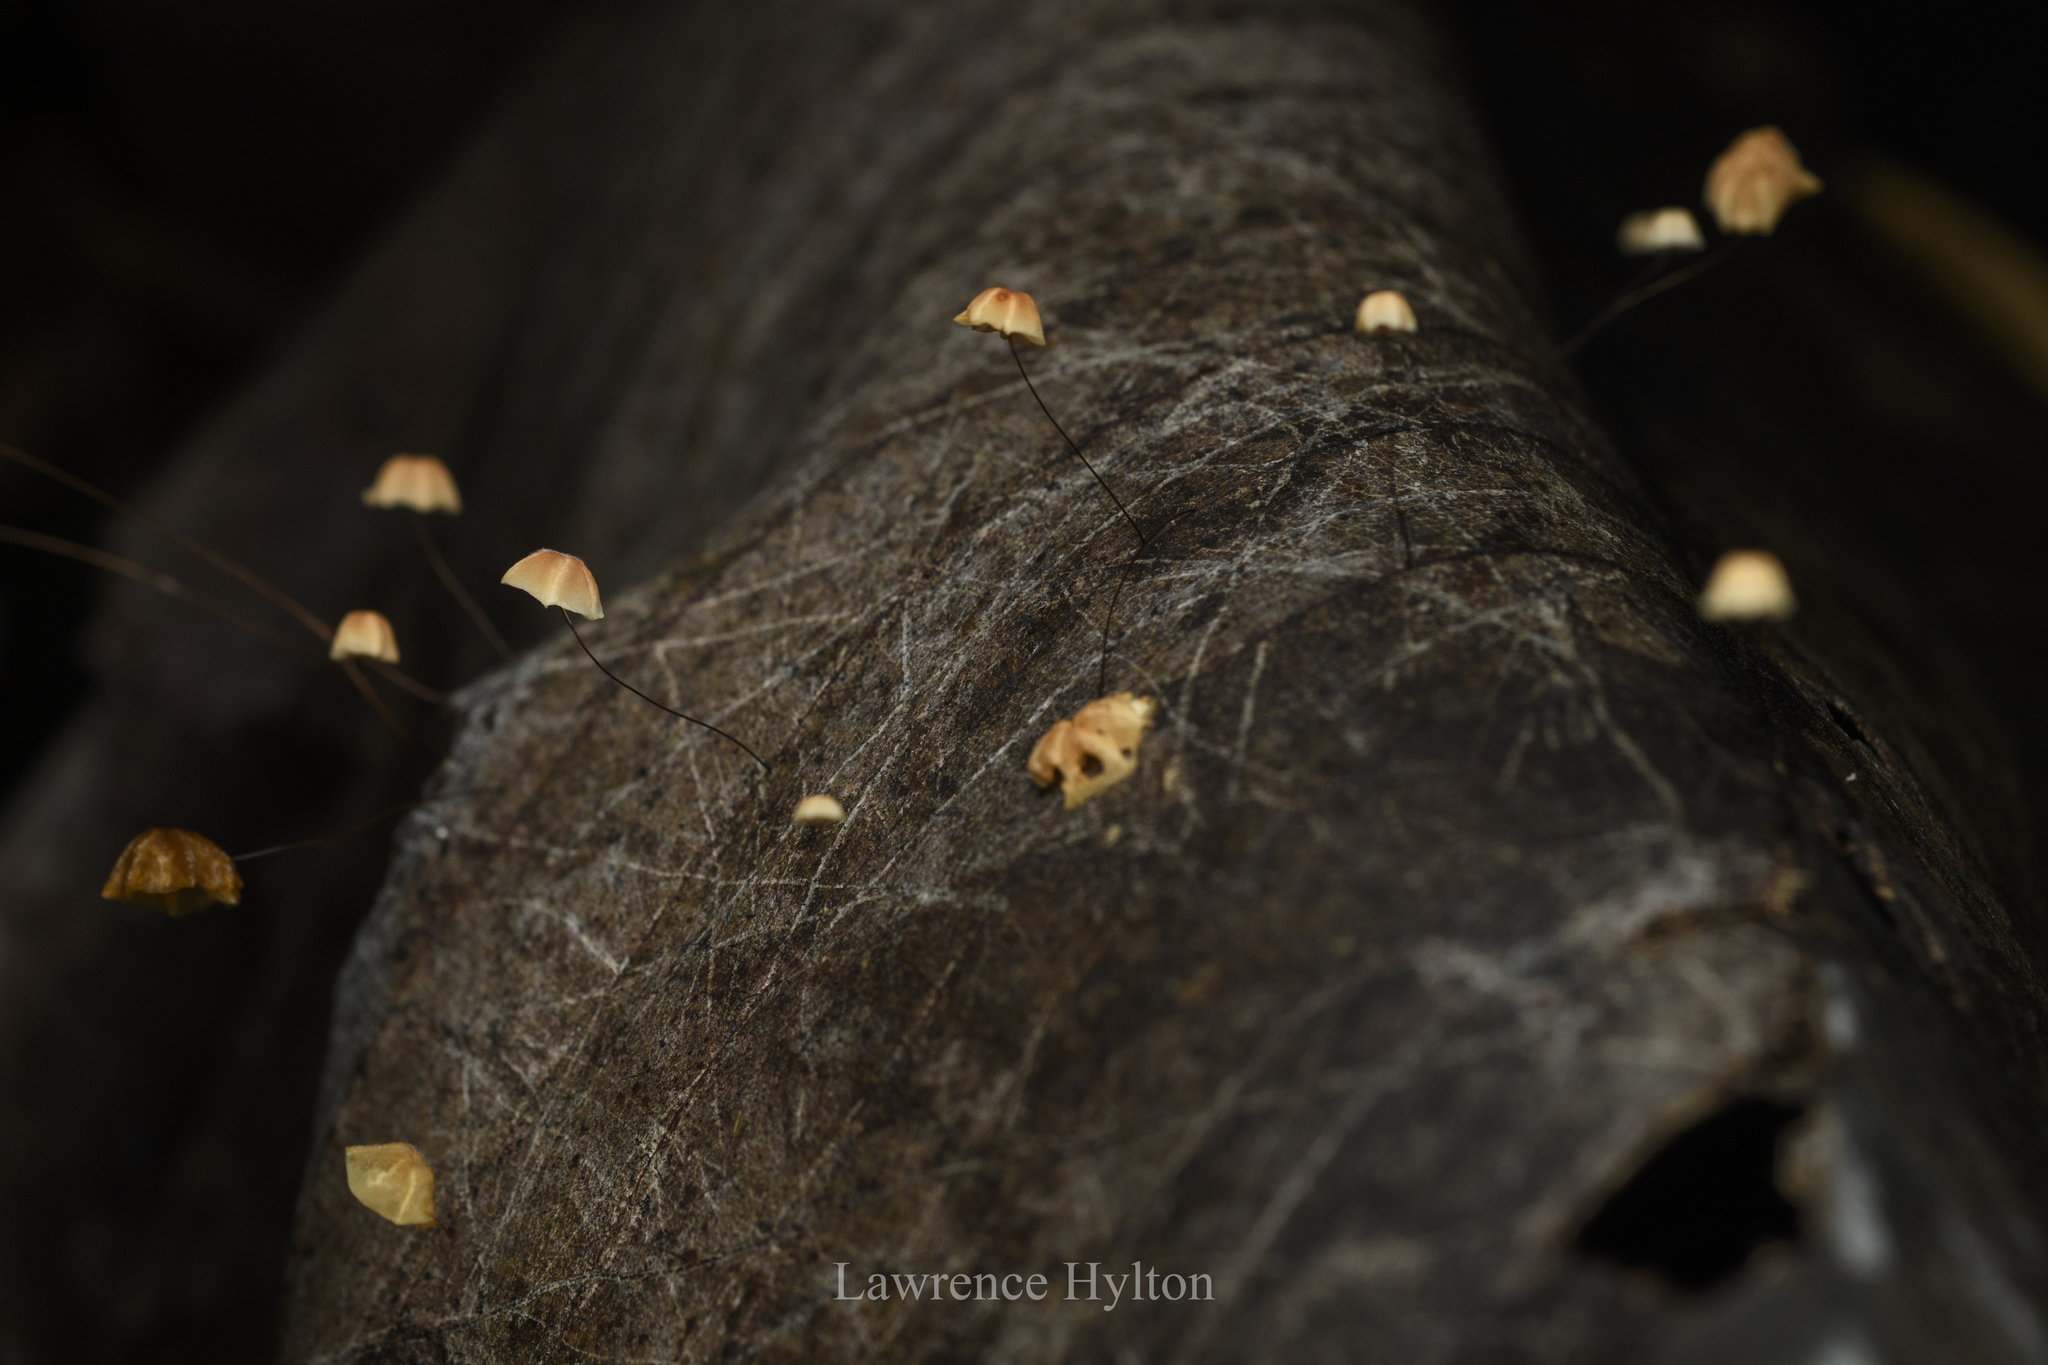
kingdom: Fungi
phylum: Basidiomycota
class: Agaricomycetes
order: Agaricales
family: Marasmiaceae
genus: Marasmius
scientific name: Marasmius crinis-equi
